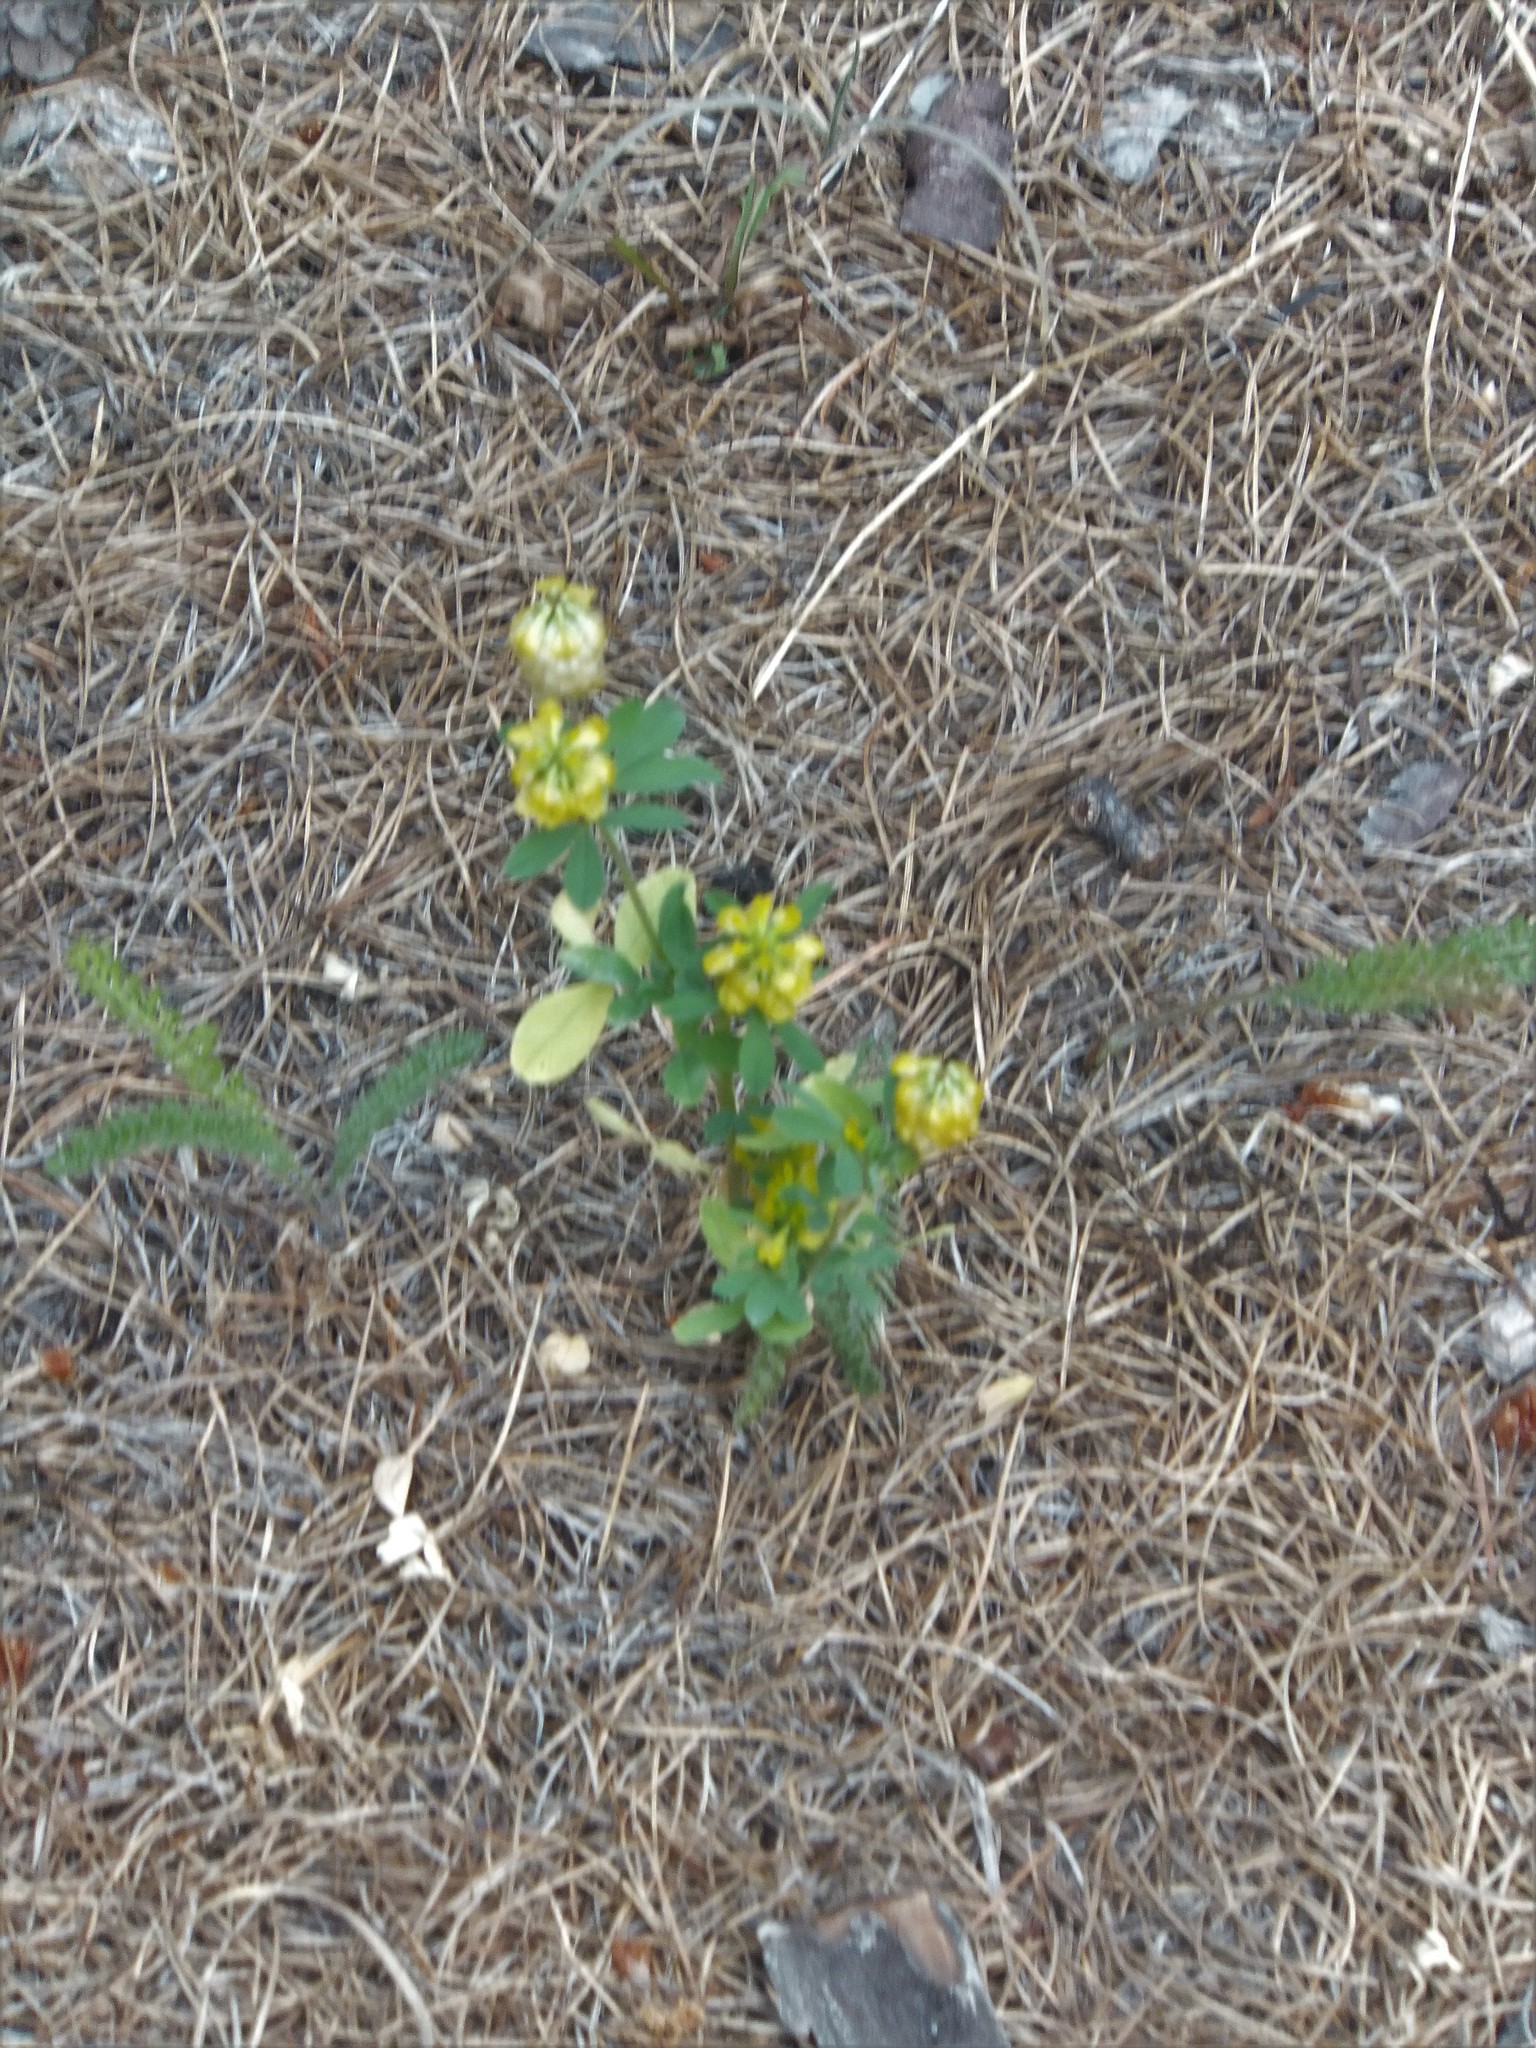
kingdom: Plantae
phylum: Tracheophyta
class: Magnoliopsida
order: Fabales
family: Fabaceae
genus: Trifolium
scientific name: Trifolium aureum
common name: Golden clover
